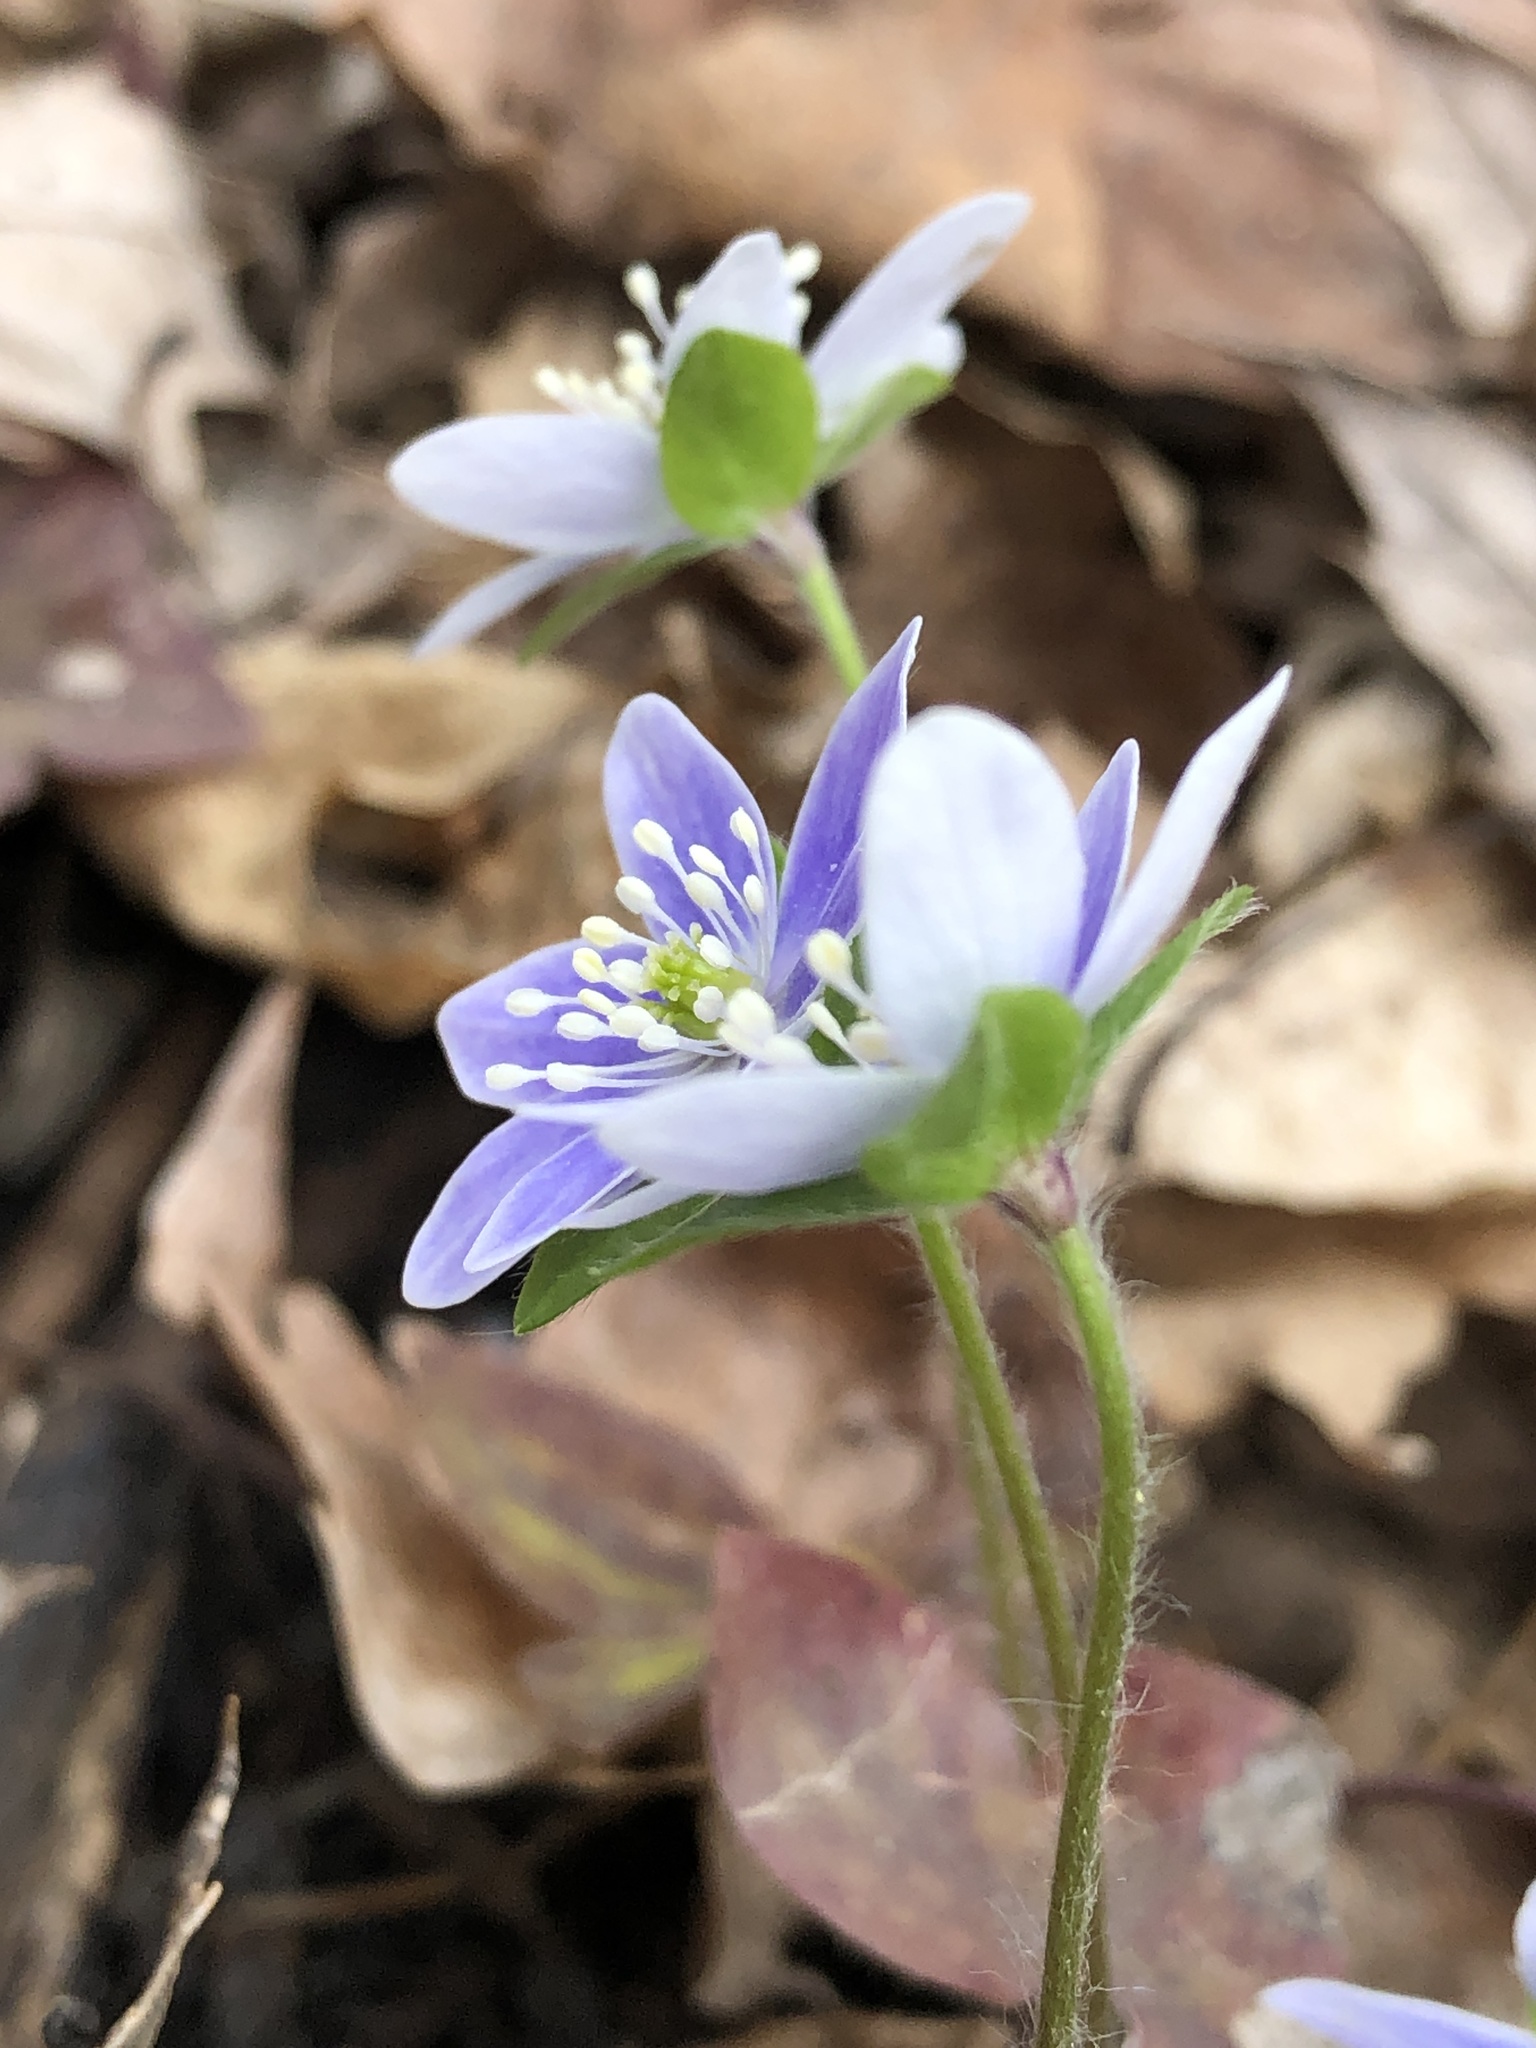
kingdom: Plantae
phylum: Tracheophyta
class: Magnoliopsida
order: Ranunculales
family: Ranunculaceae
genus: Hepatica
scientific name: Hepatica acutiloba
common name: Sharp-lobed hepatica
